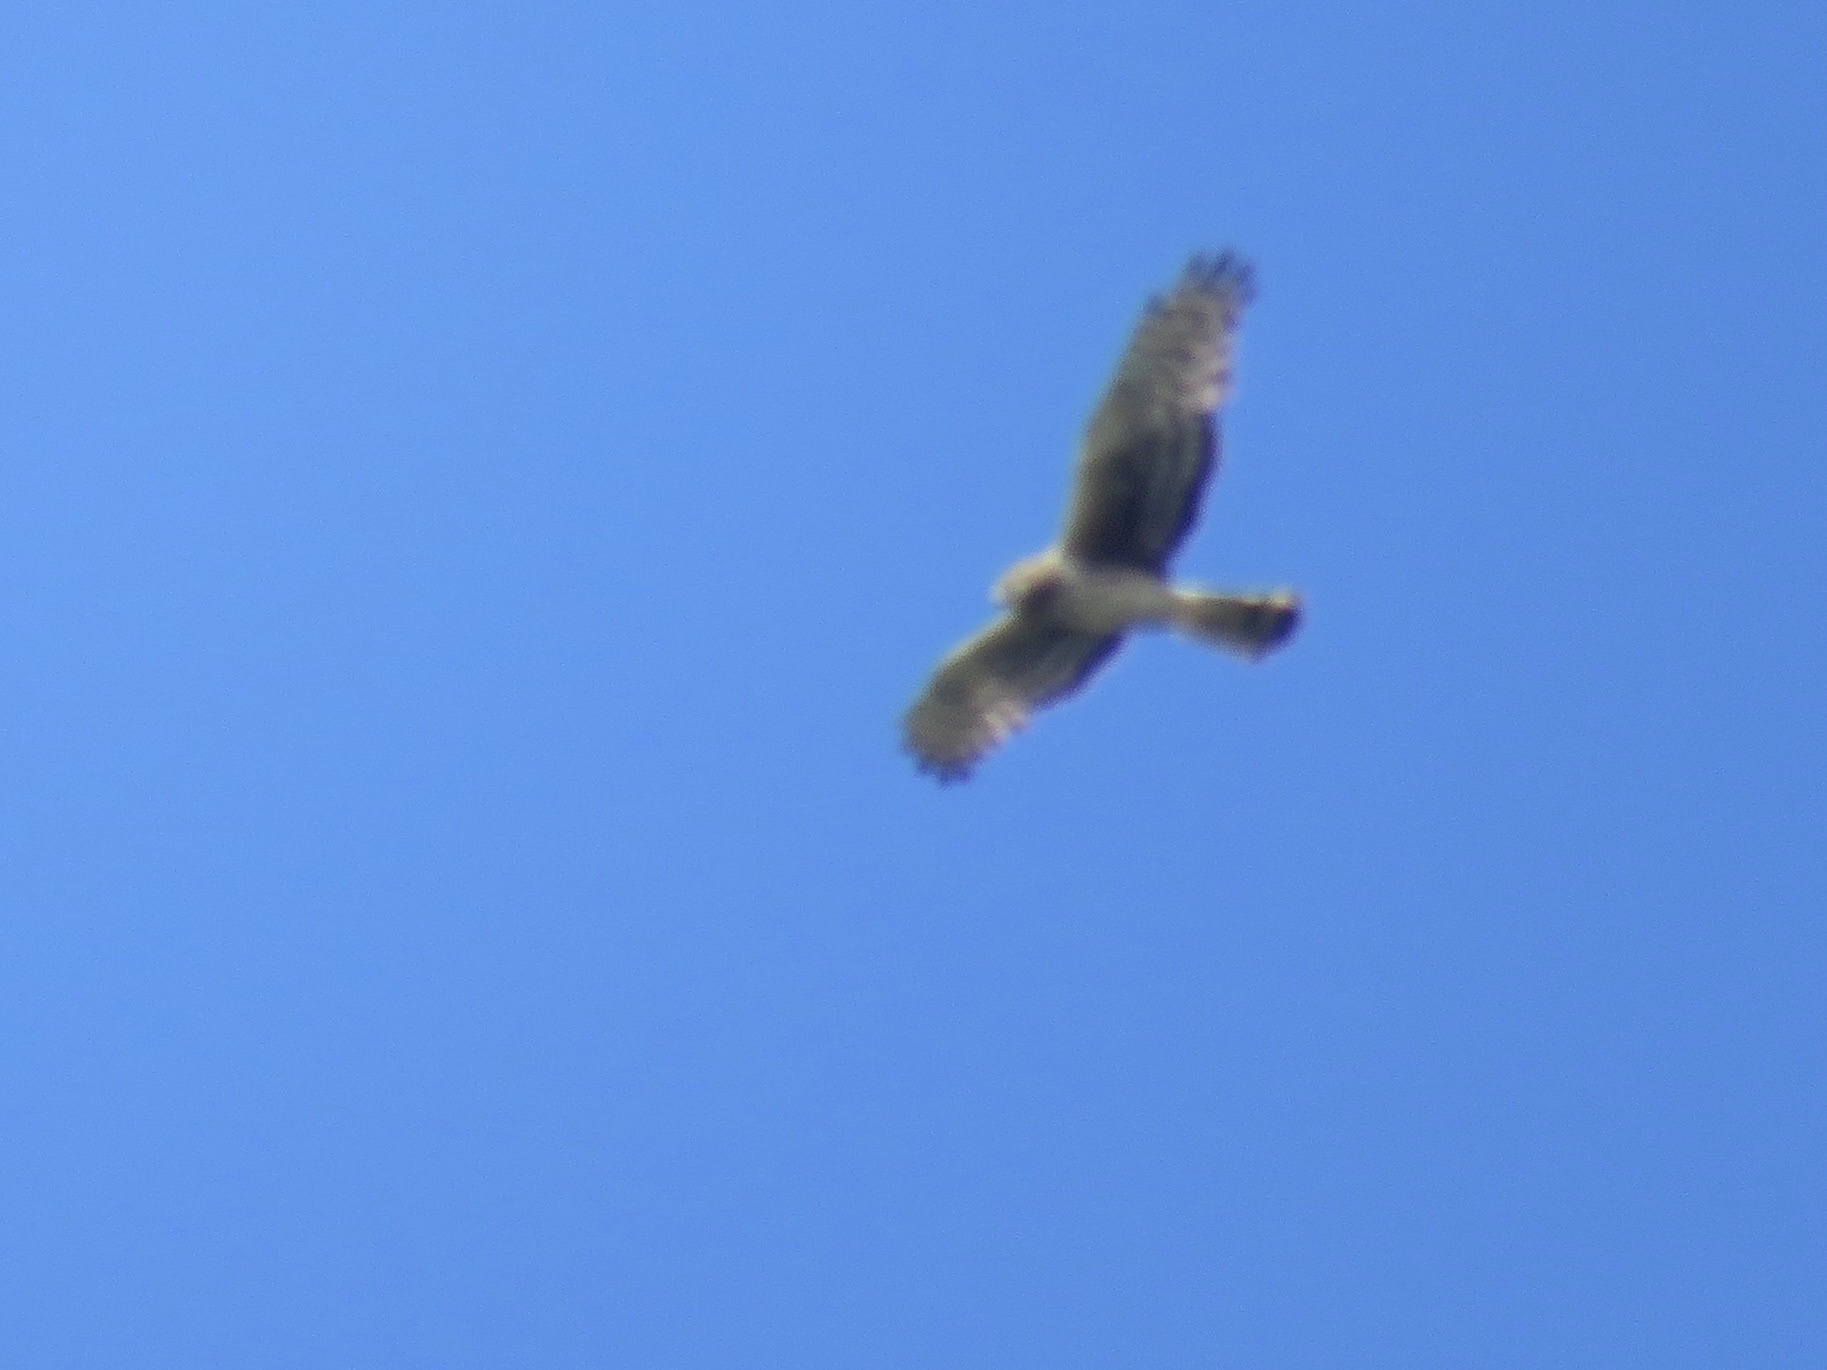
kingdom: Animalia
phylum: Chordata
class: Aves
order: Accipitriformes
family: Accipitridae
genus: Circus
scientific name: Circus cyaneus
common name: Hen harrier
